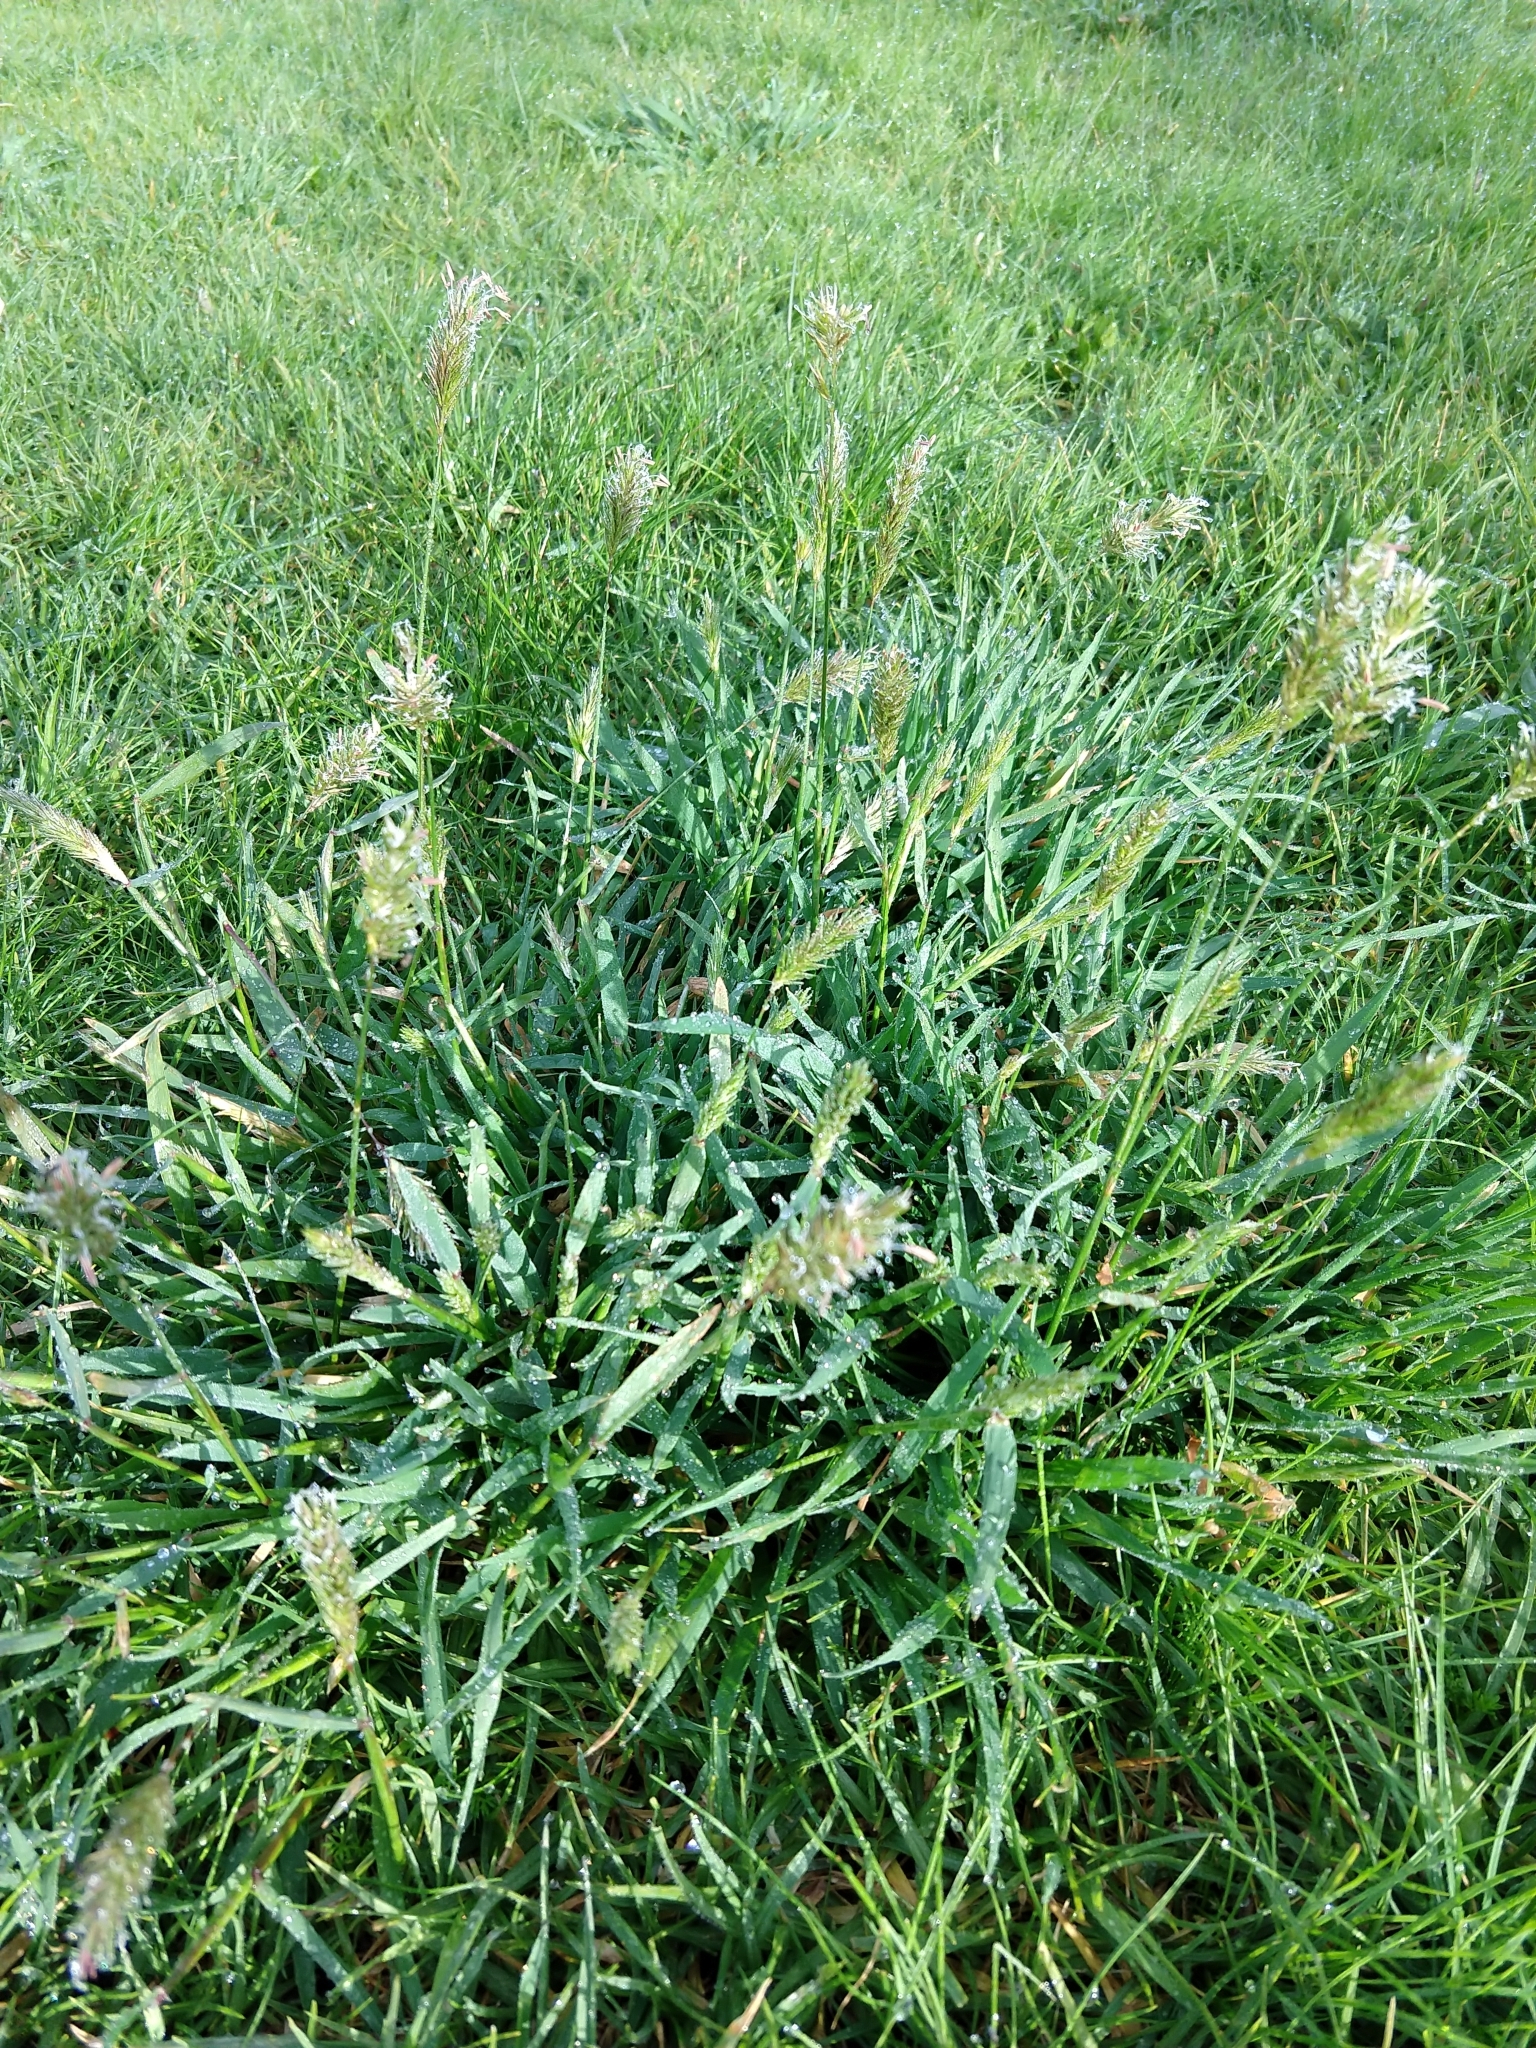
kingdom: Plantae
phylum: Tracheophyta
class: Liliopsida
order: Poales
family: Poaceae
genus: Anthoxanthum
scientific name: Anthoxanthum odoratum
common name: Sweet vernalgrass
